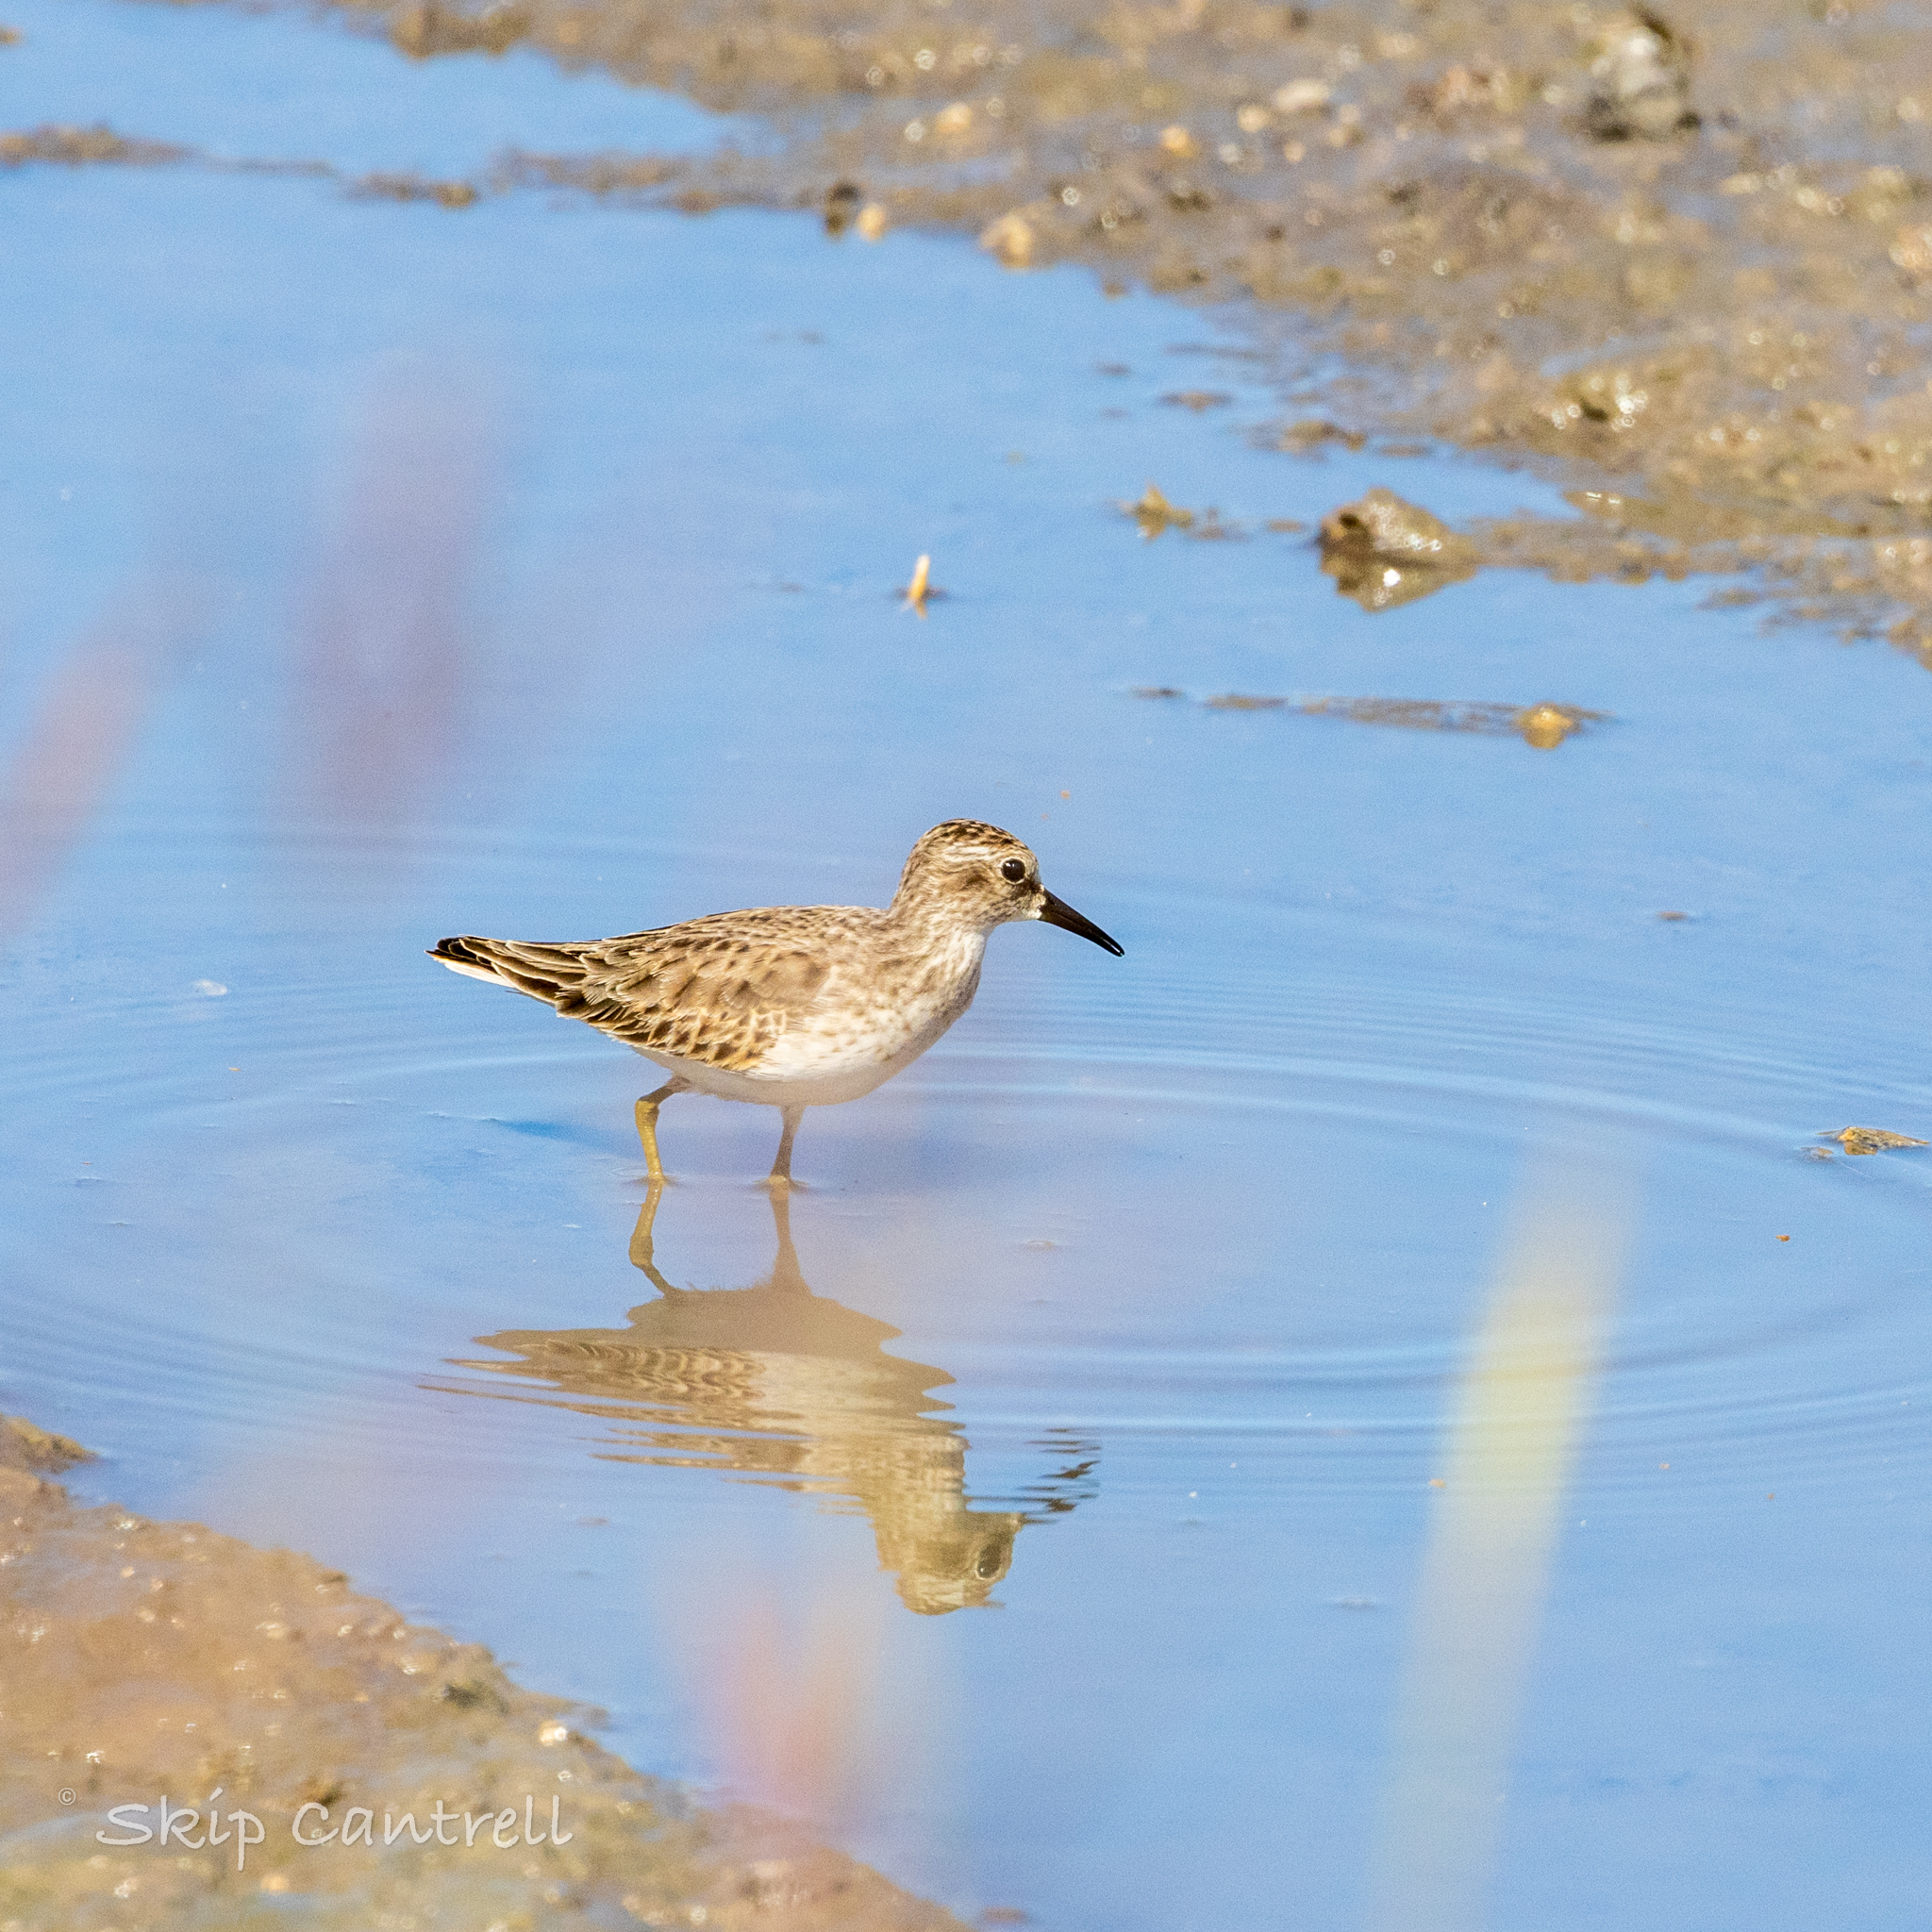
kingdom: Animalia
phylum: Chordata
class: Aves
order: Charadriiformes
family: Scolopacidae
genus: Calidris
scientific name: Calidris minutilla
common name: Least sandpiper
